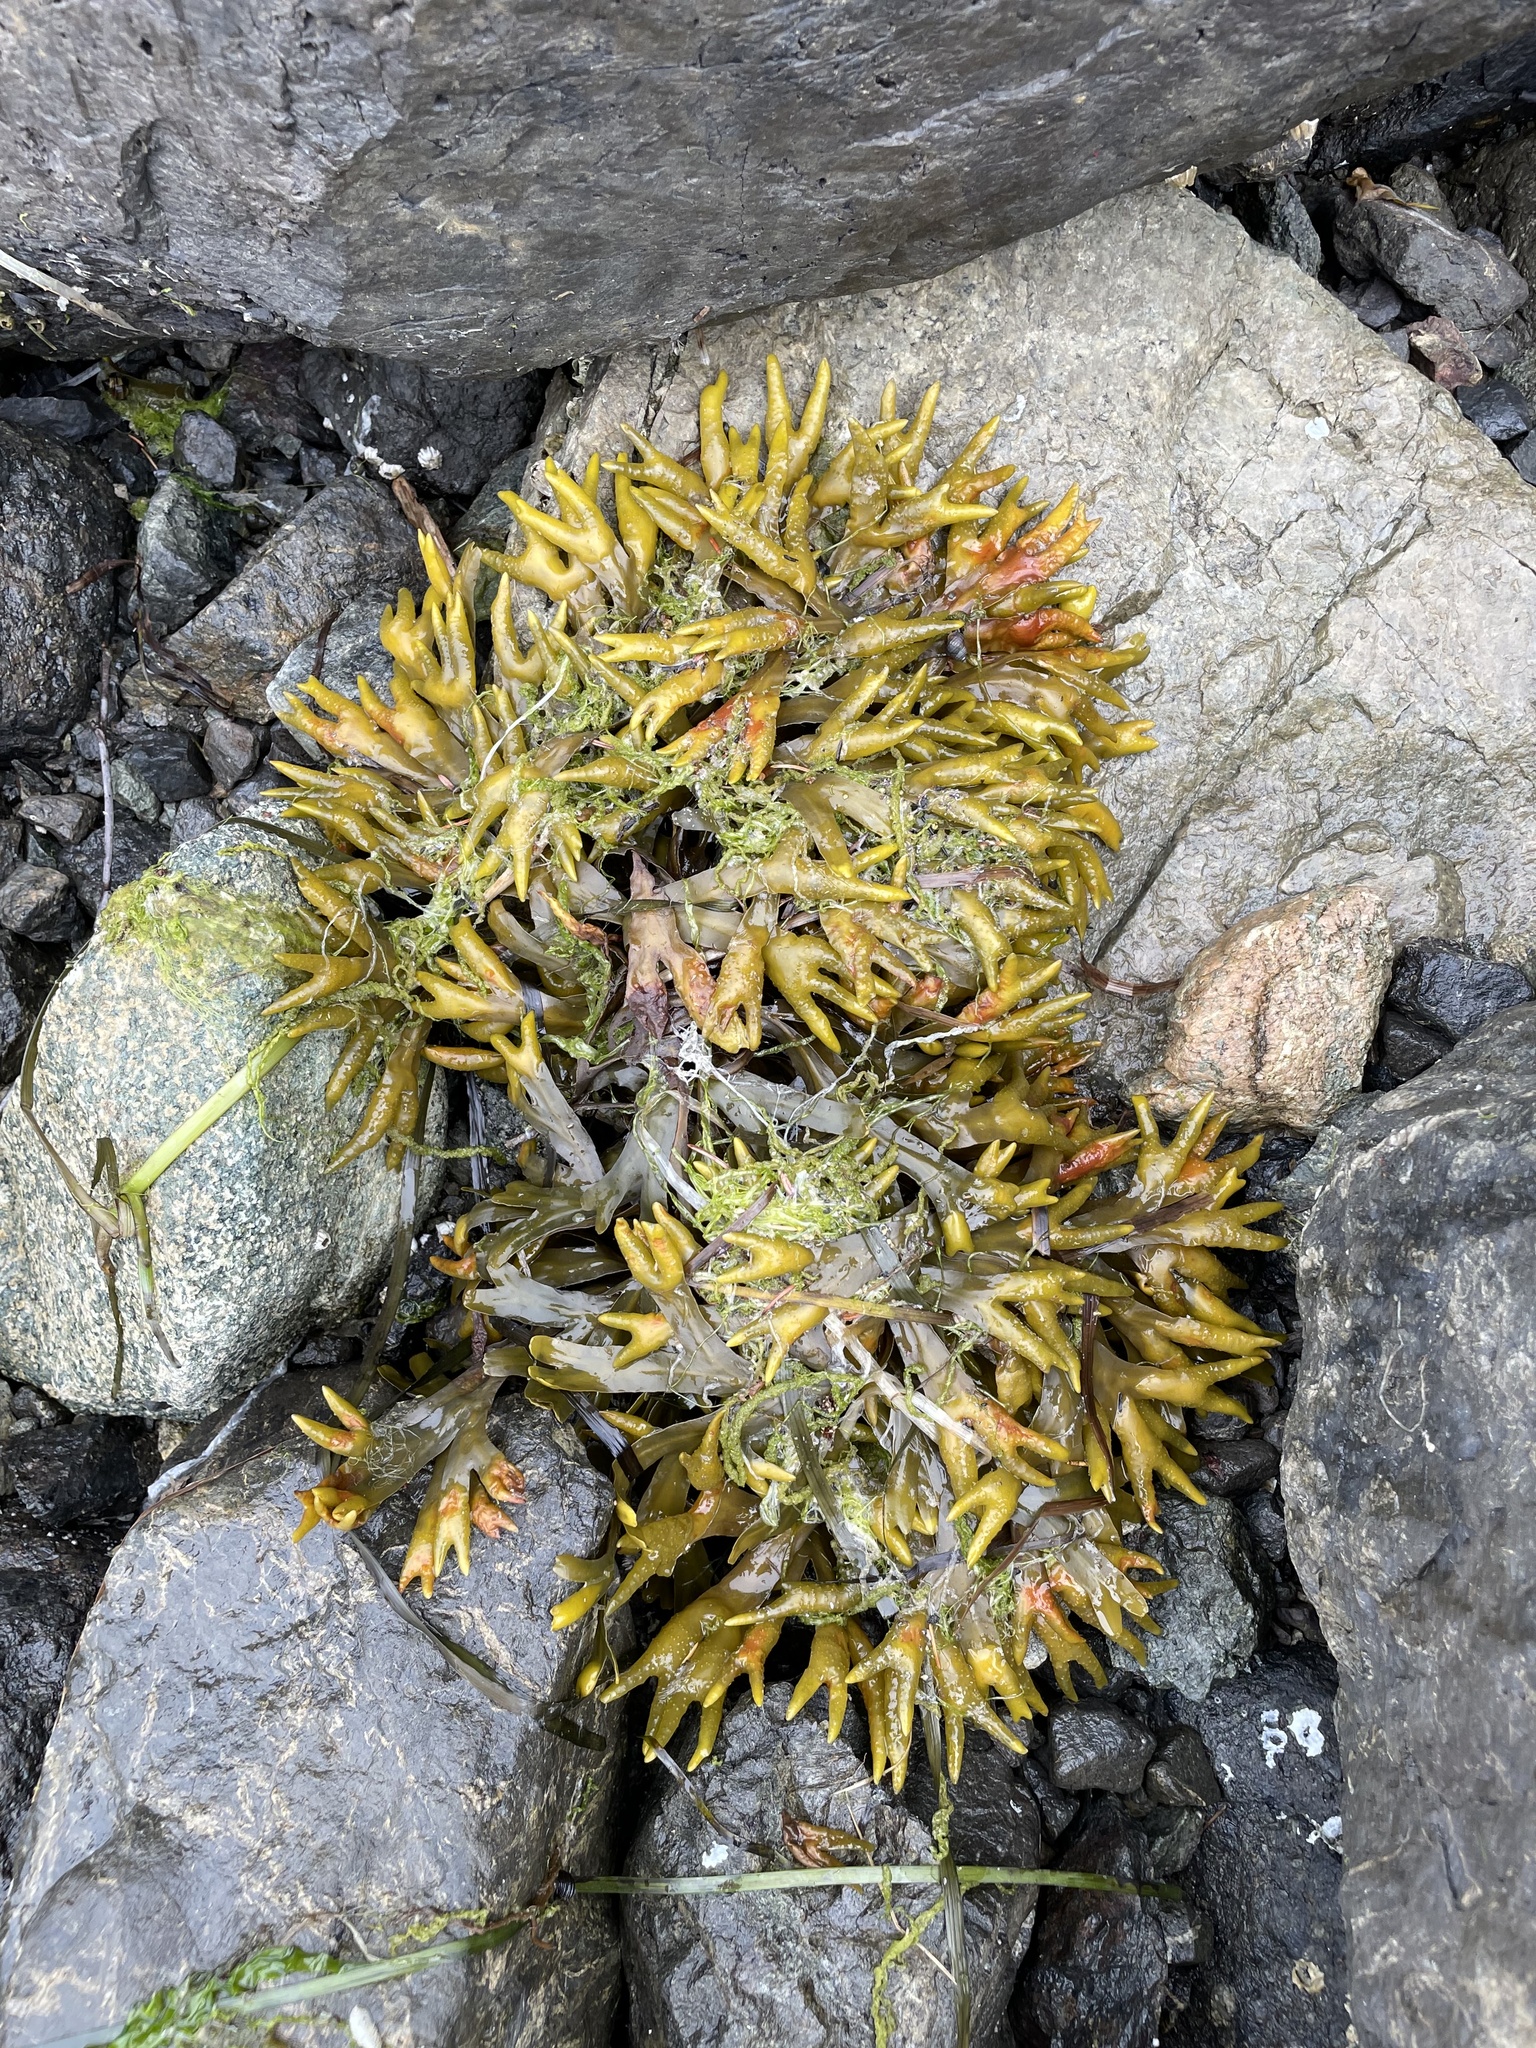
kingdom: Chromista
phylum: Ochrophyta
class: Phaeophyceae
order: Fucales
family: Fucaceae
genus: Fucus
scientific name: Fucus distichus
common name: Rockweed
